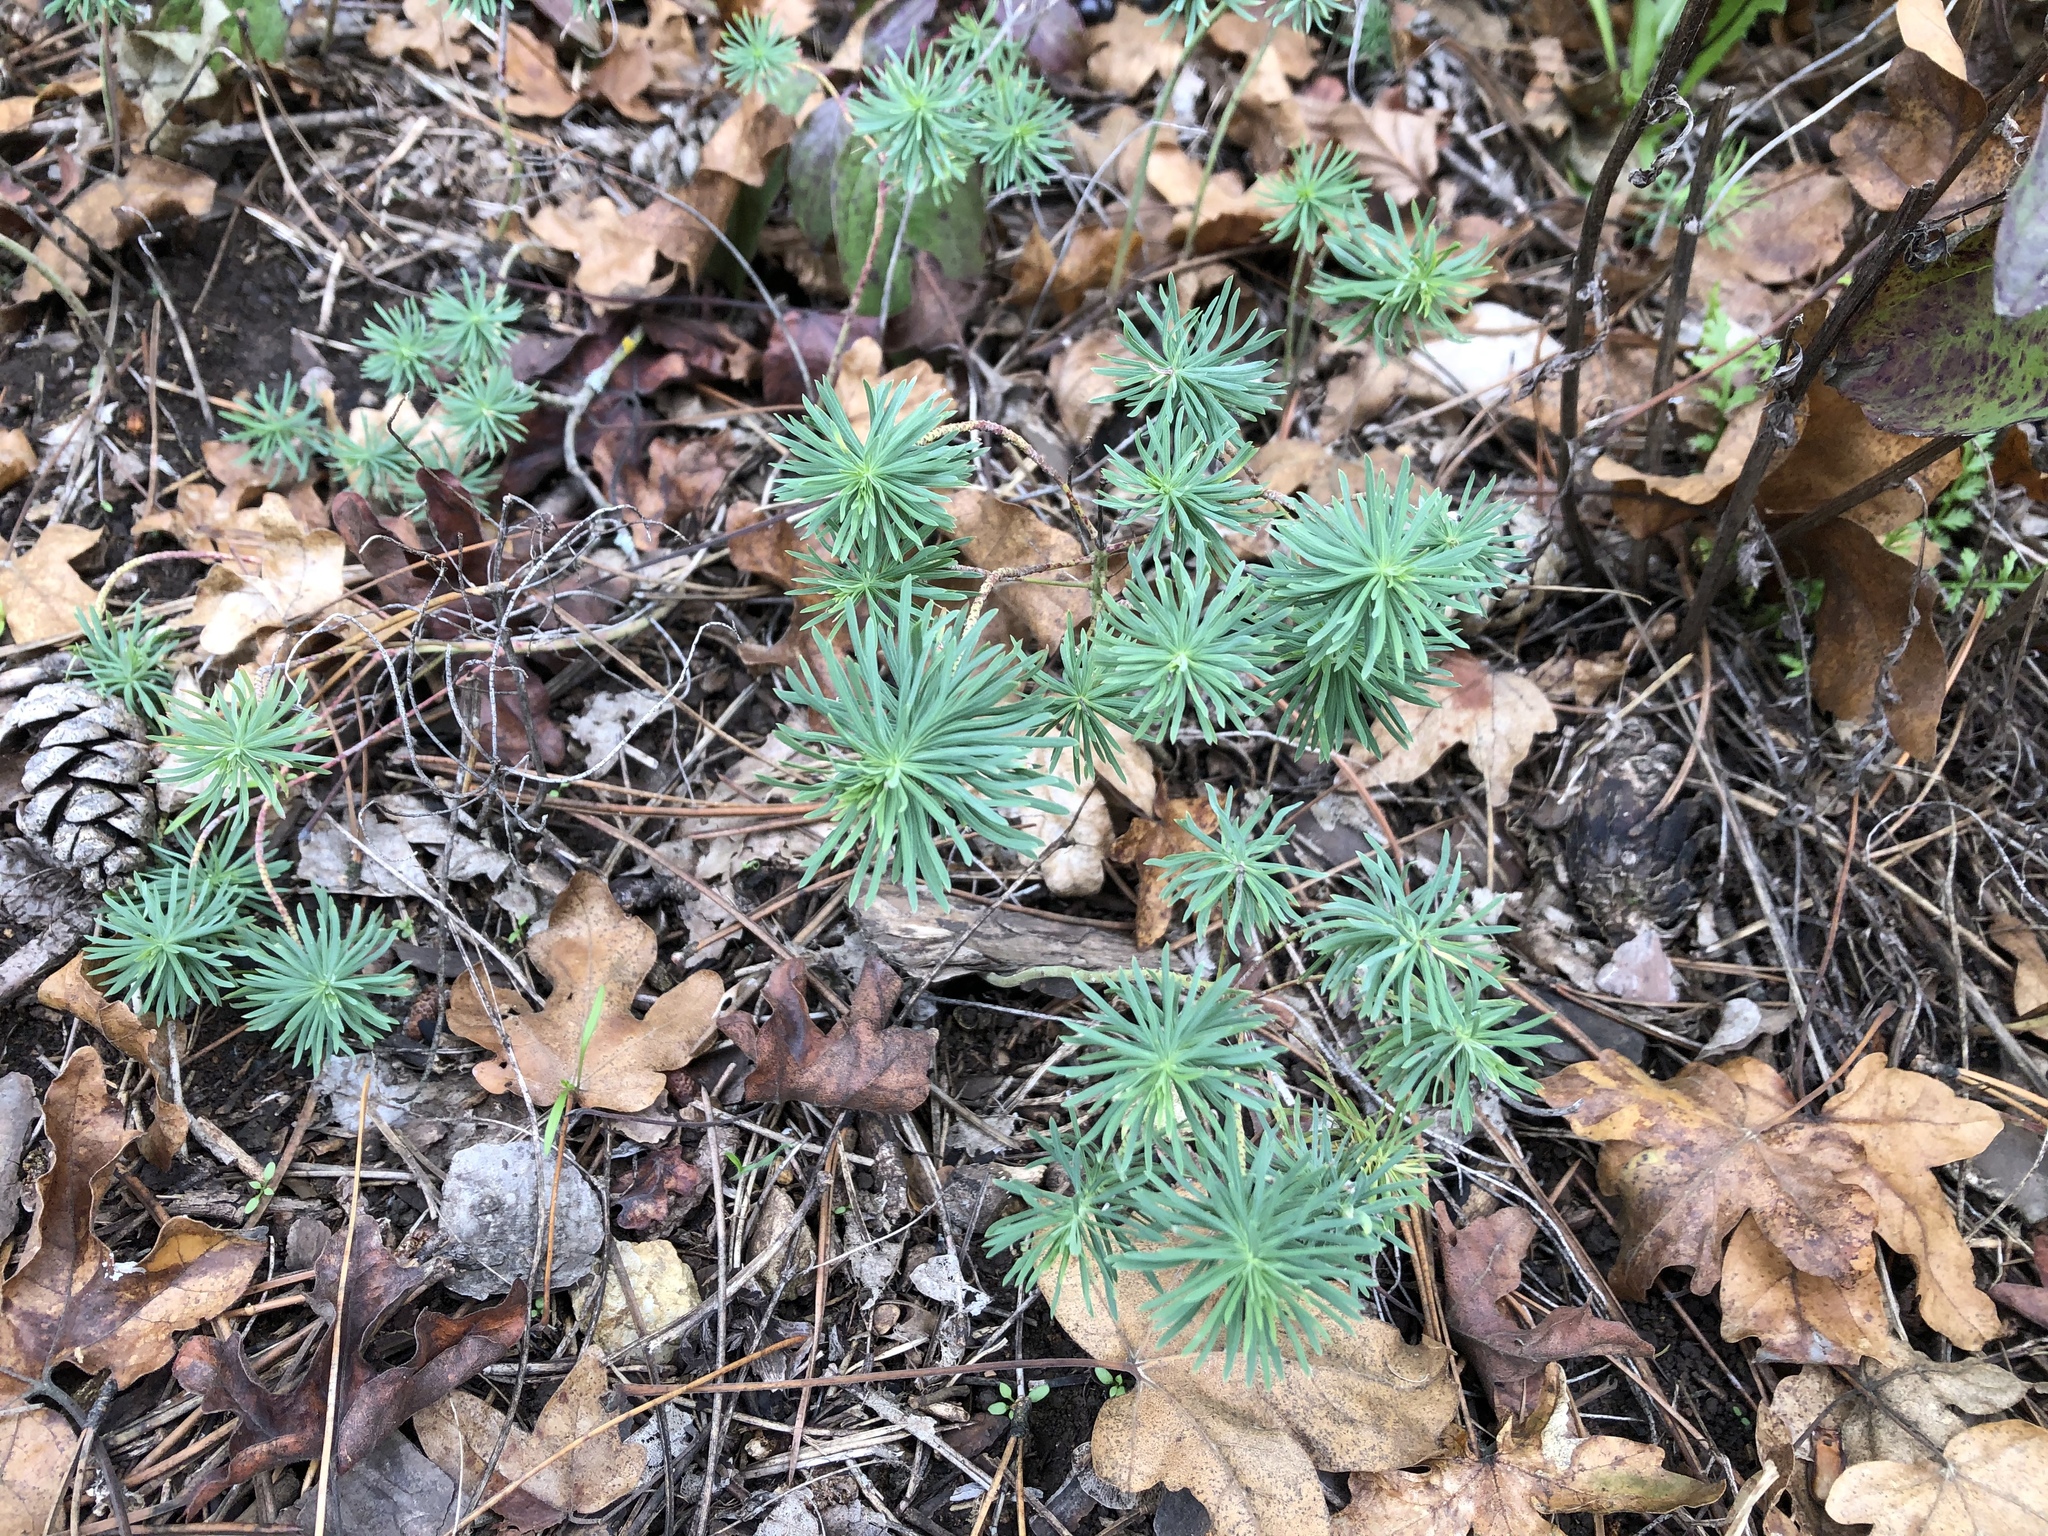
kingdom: Plantae
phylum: Tracheophyta
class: Magnoliopsida
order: Malpighiales
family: Euphorbiaceae
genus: Euphorbia
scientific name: Euphorbia cyparissias
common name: Cypress spurge
